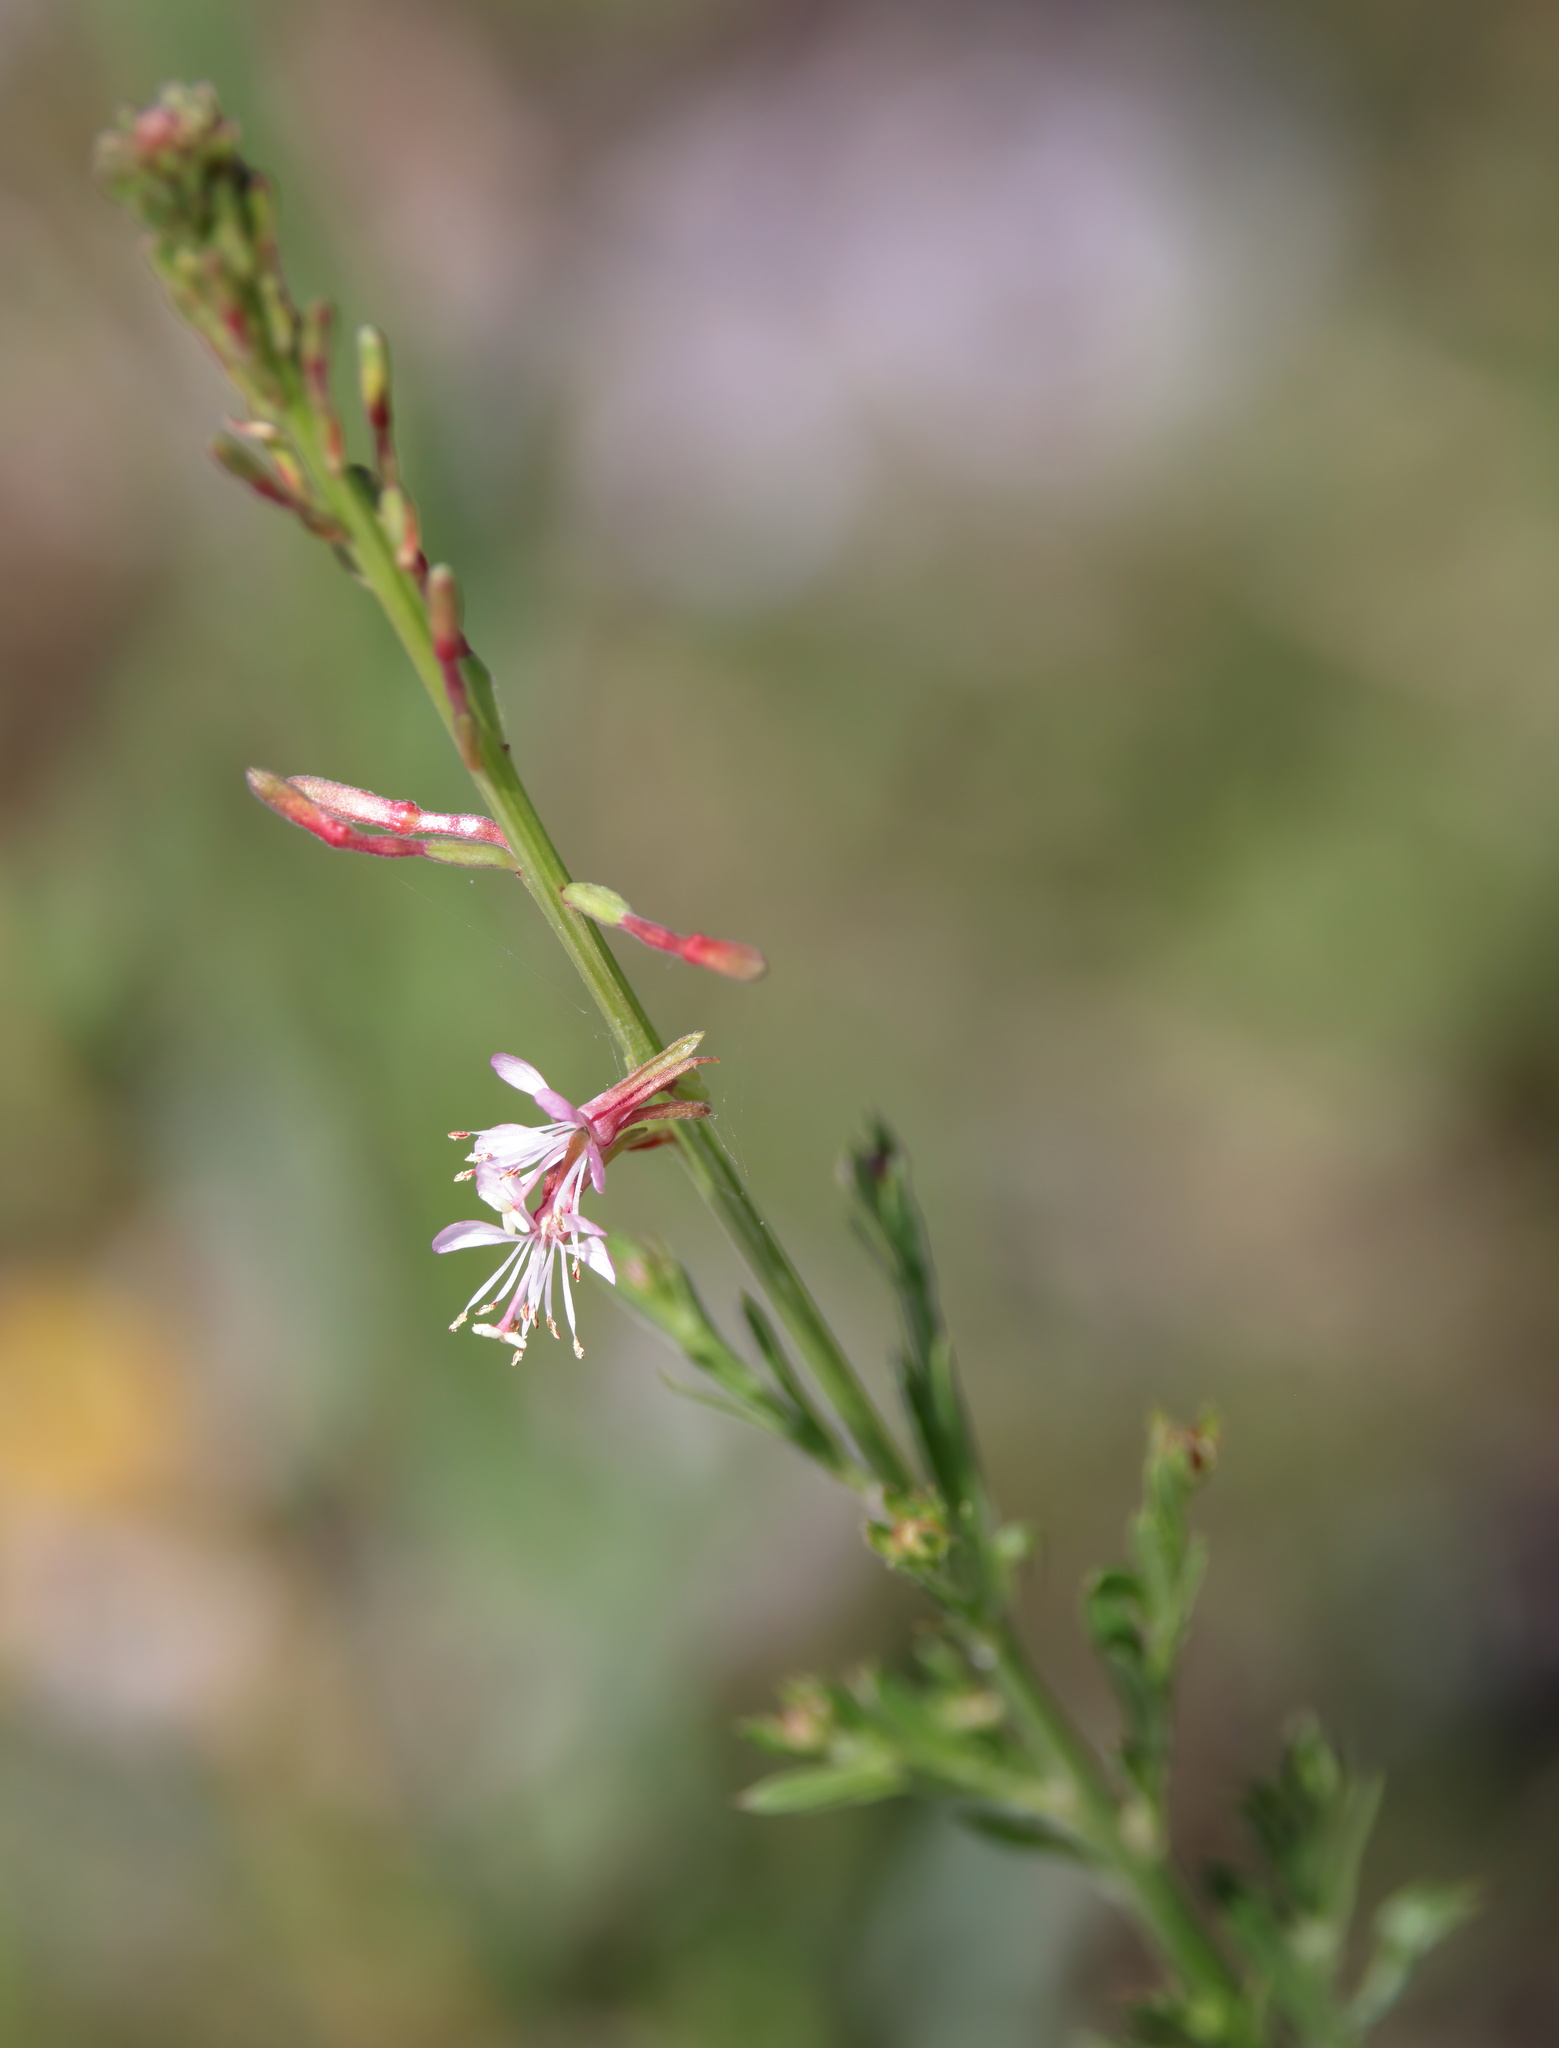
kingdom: Plantae
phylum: Tracheophyta
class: Magnoliopsida
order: Myrtales
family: Onagraceae
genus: Oenothera
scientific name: Oenothera simulans
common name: Southern beeblossom
